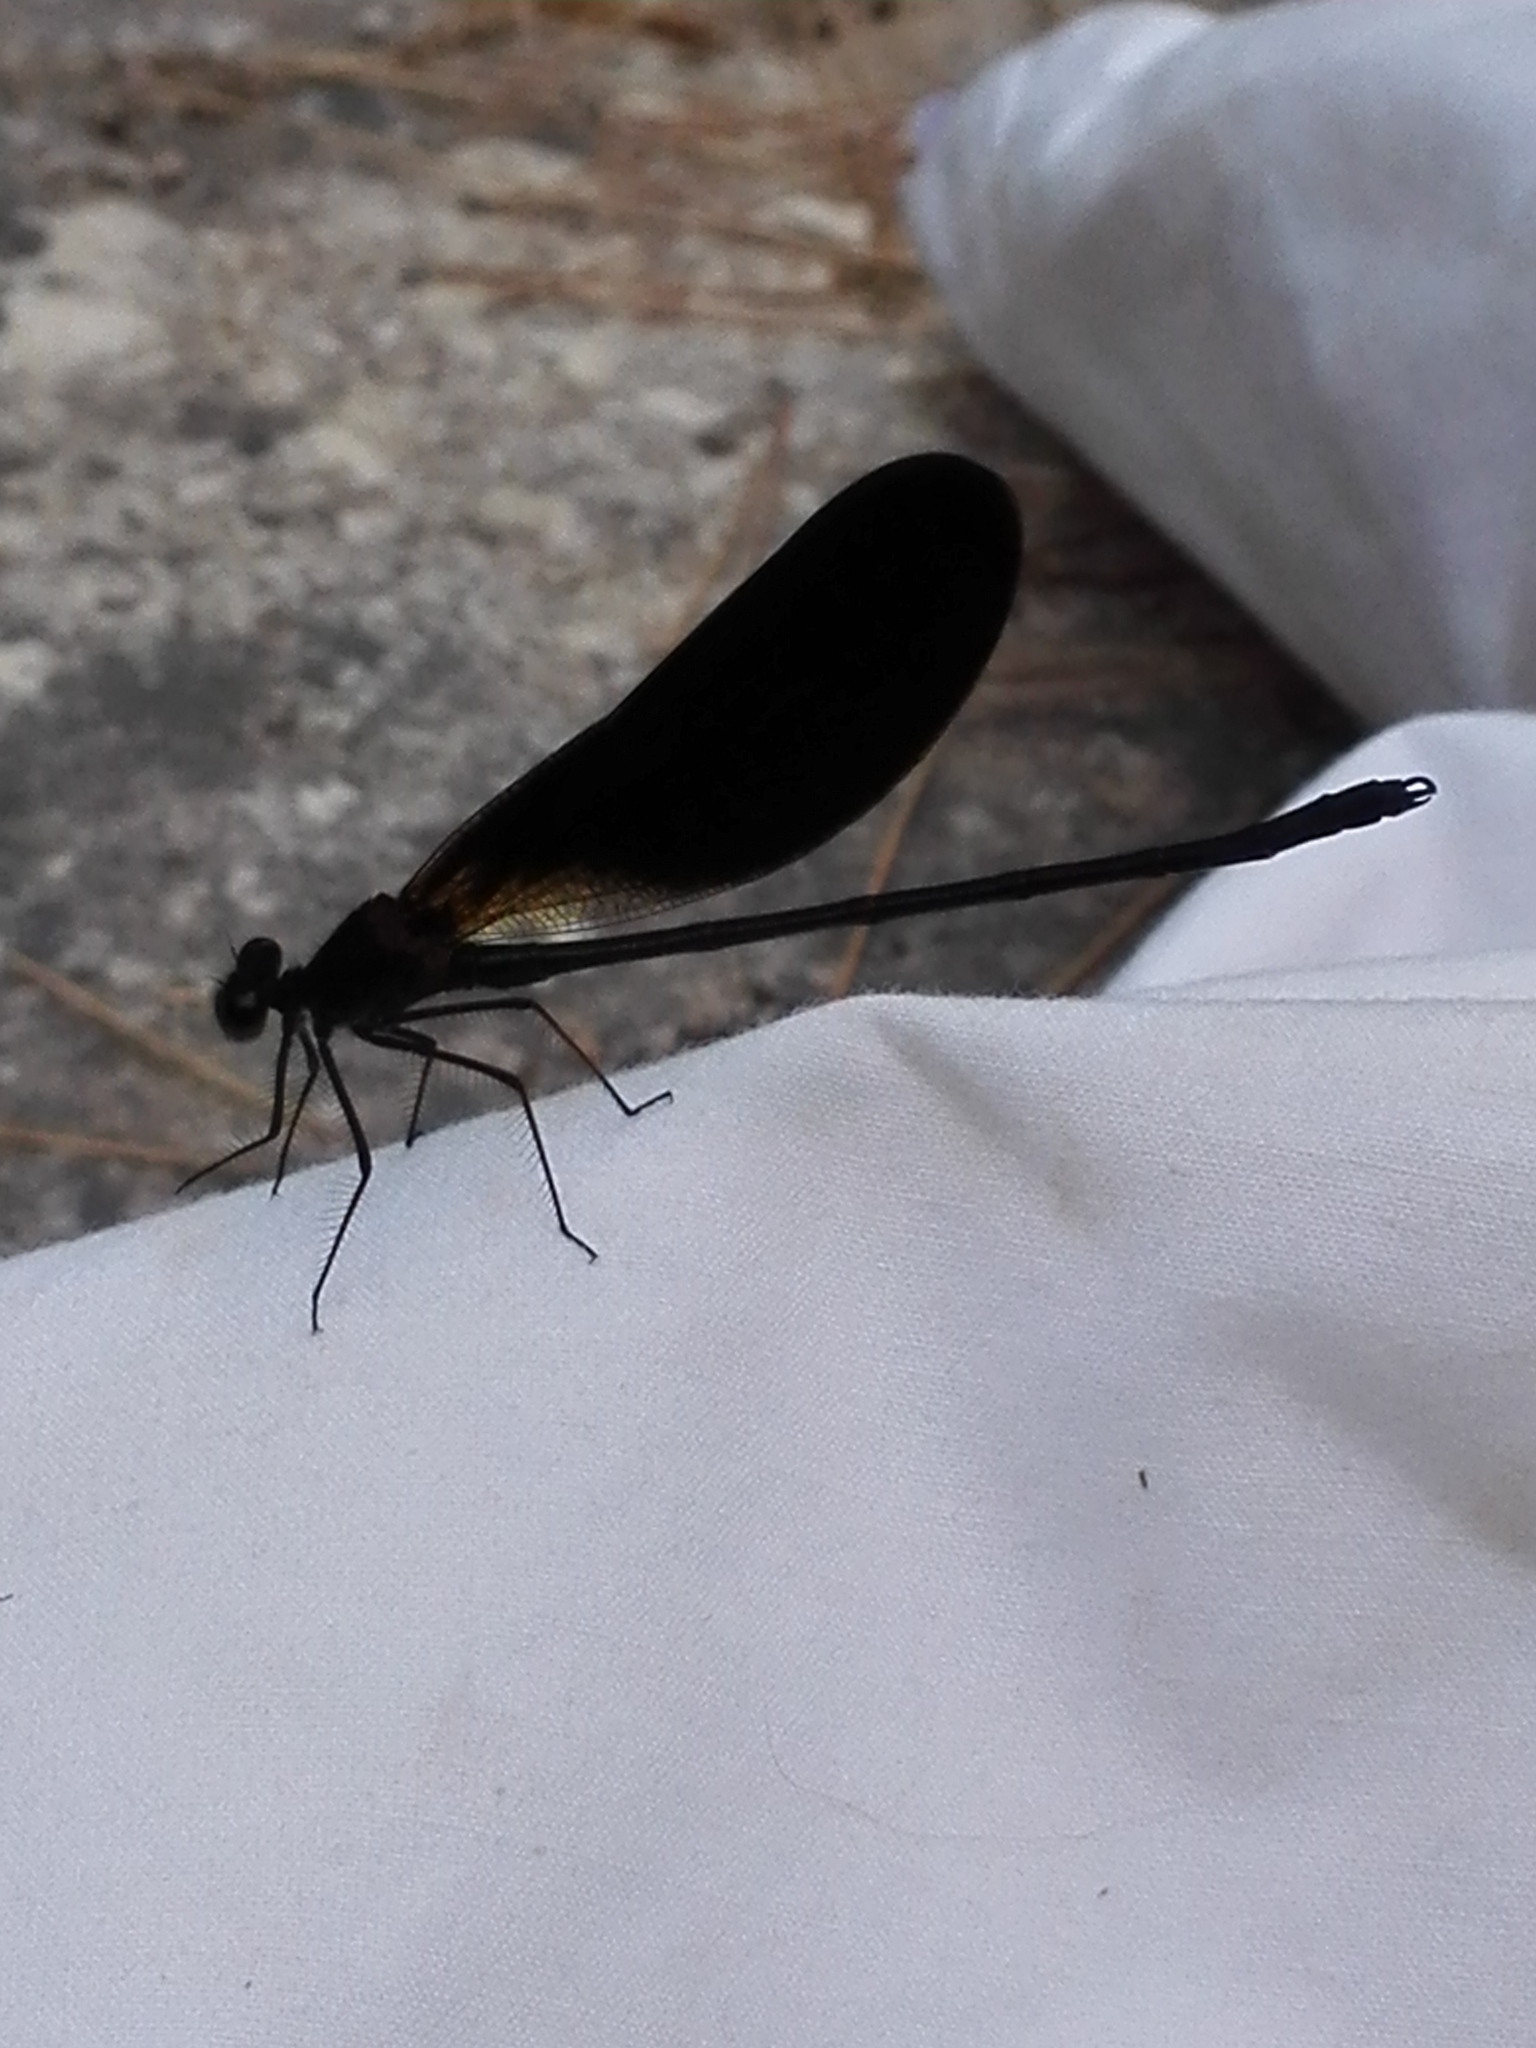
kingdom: Animalia
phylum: Arthropoda
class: Insecta
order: Odonata
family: Calopterygidae
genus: Calopteryx
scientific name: Calopteryx haemorrhoidalis
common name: Copper demoiselle
